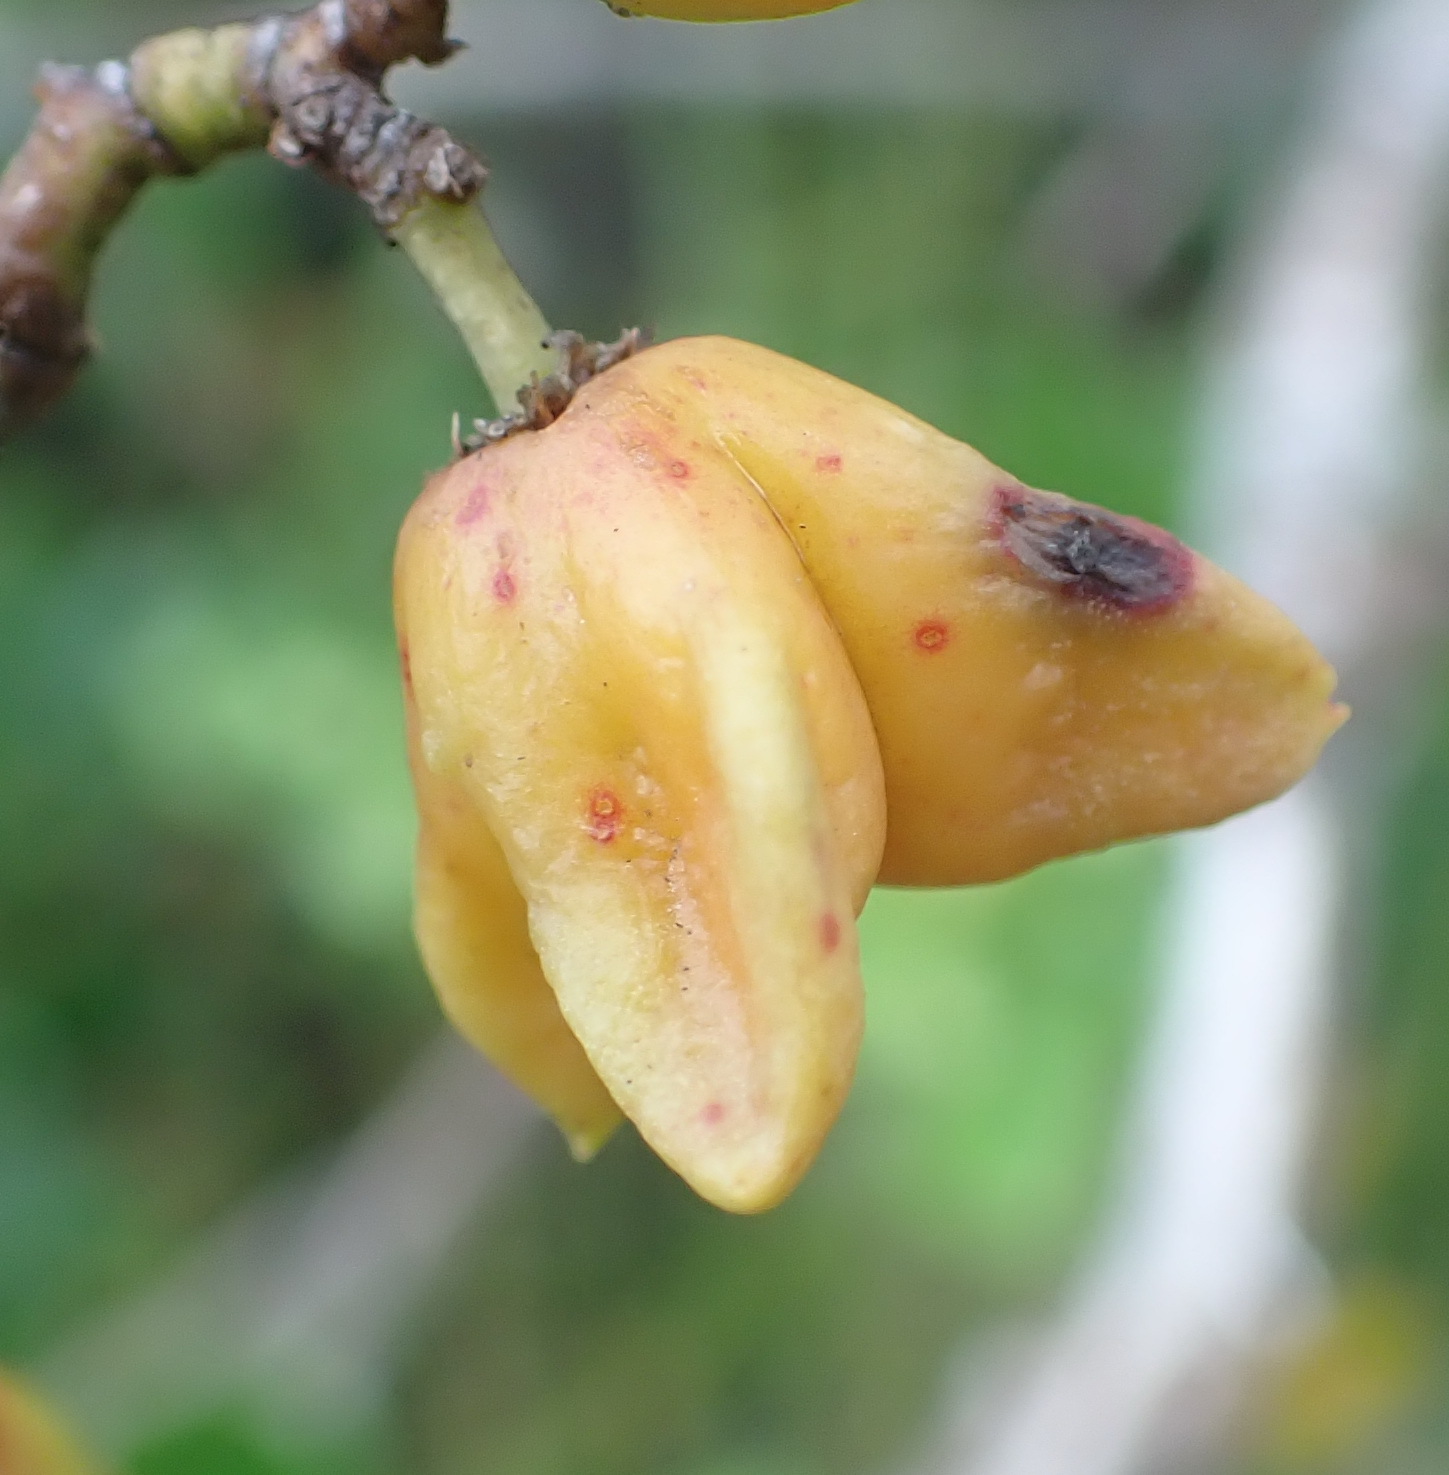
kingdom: Plantae
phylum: Tracheophyta
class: Magnoliopsida
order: Celastrales
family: Celastraceae
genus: Pterocelastrus
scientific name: Pterocelastrus tricuspidatus
